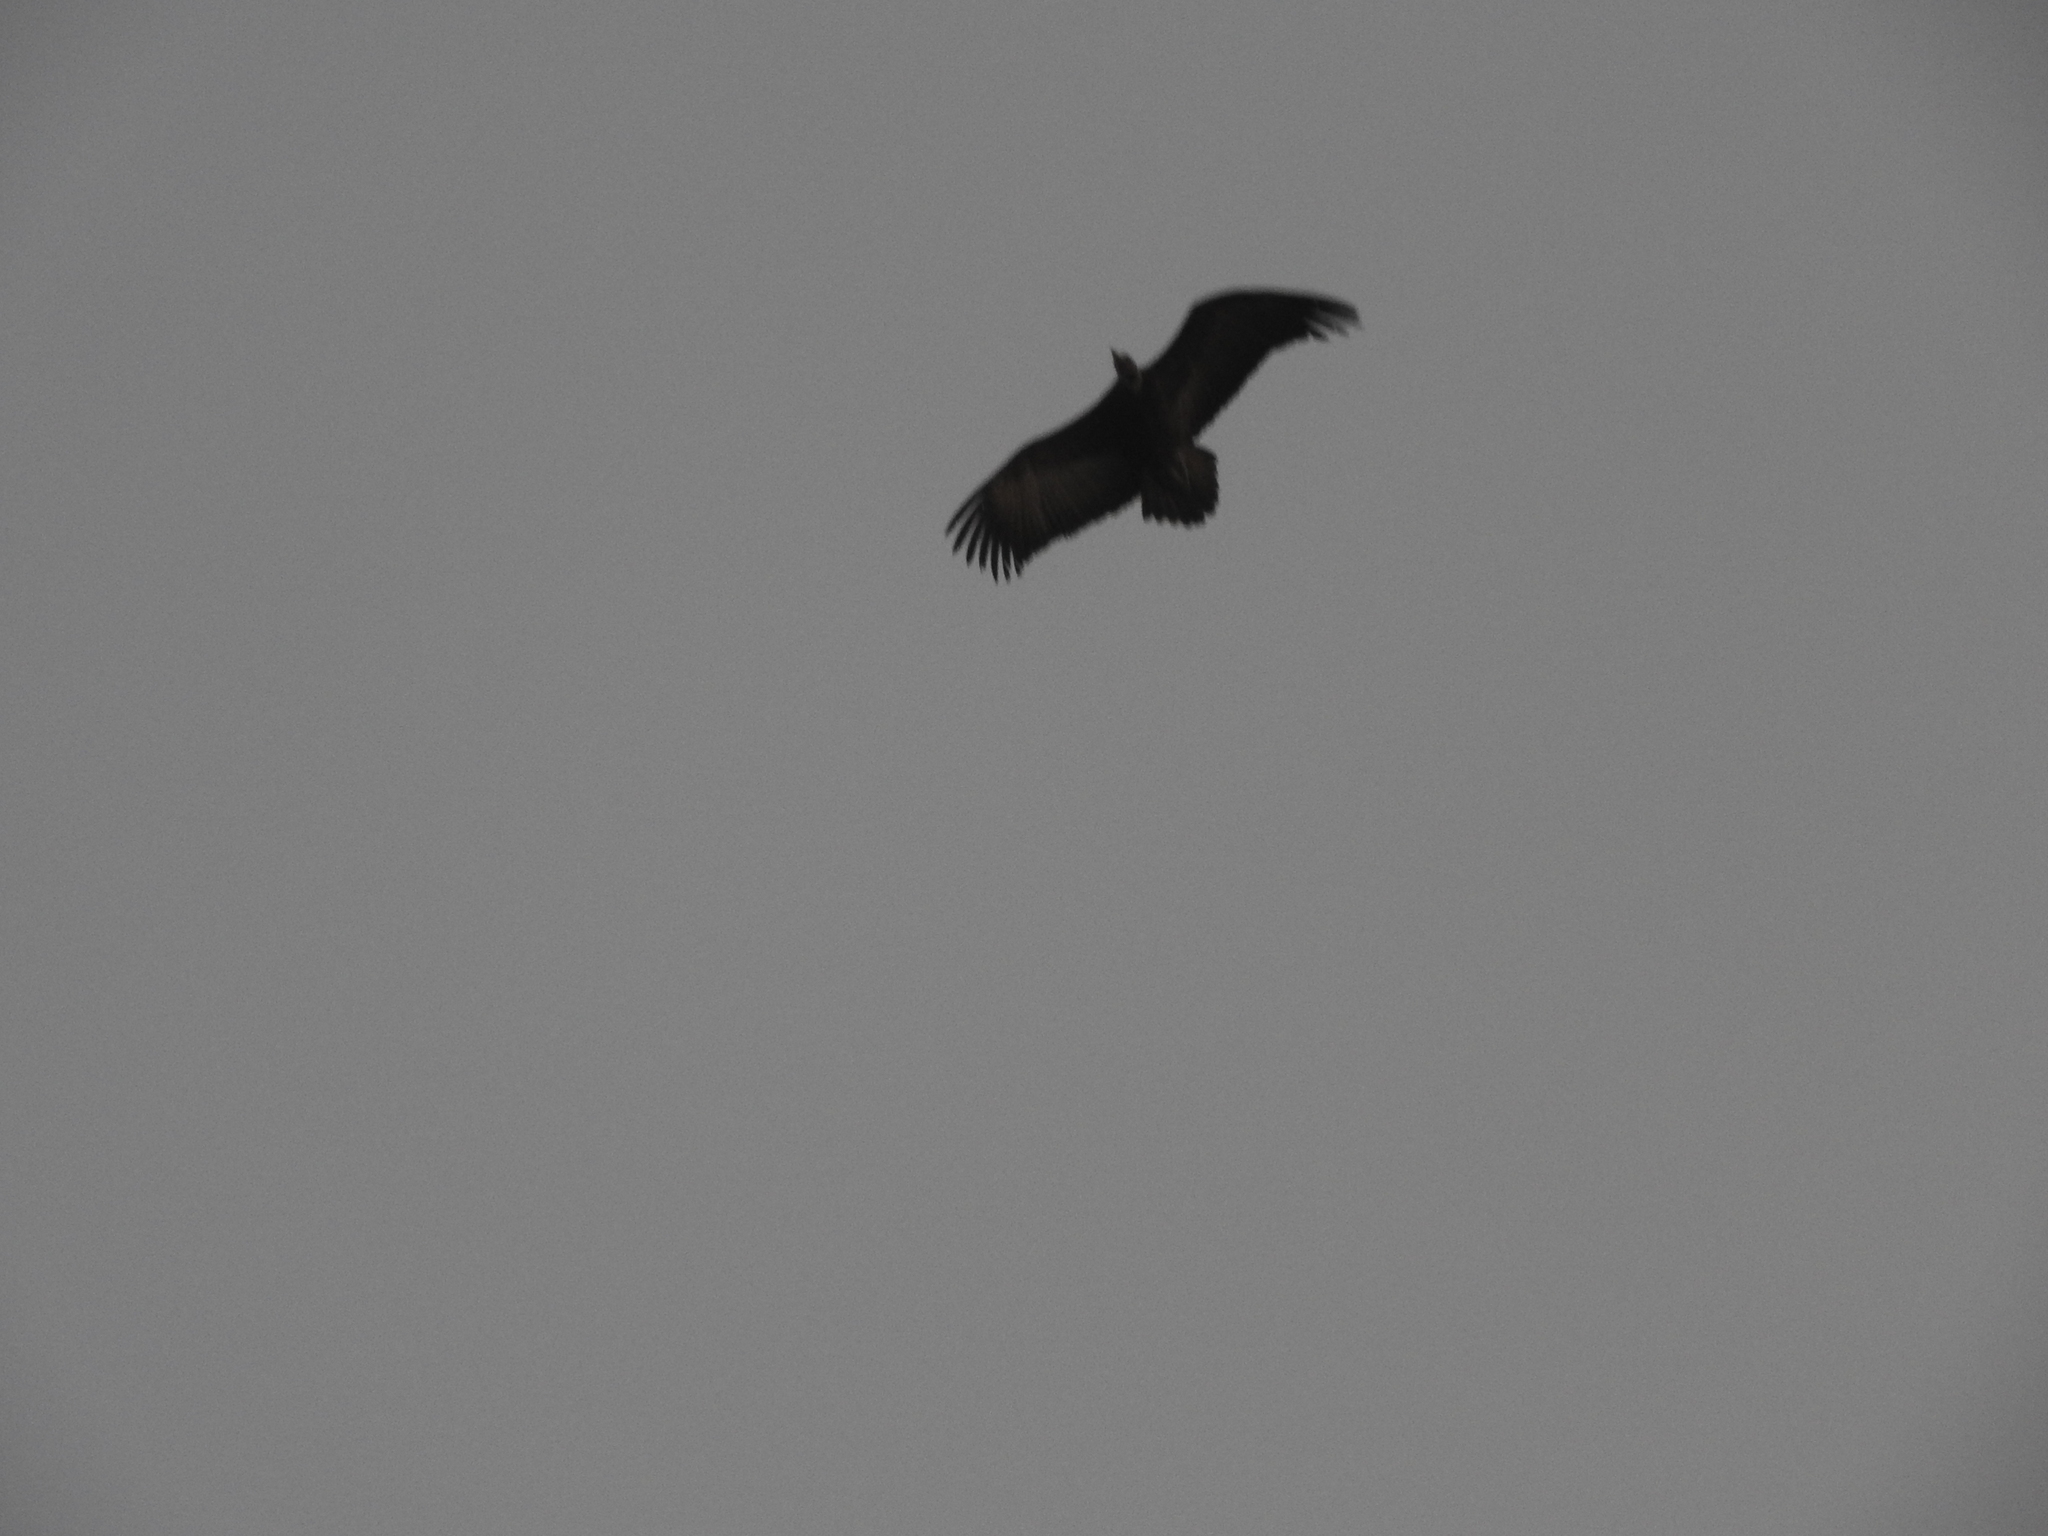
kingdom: Animalia
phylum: Chordata
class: Aves
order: Accipitriformes
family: Accipitridae
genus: Necrosyrtes
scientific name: Necrosyrtes monachus
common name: Hooded vulture
